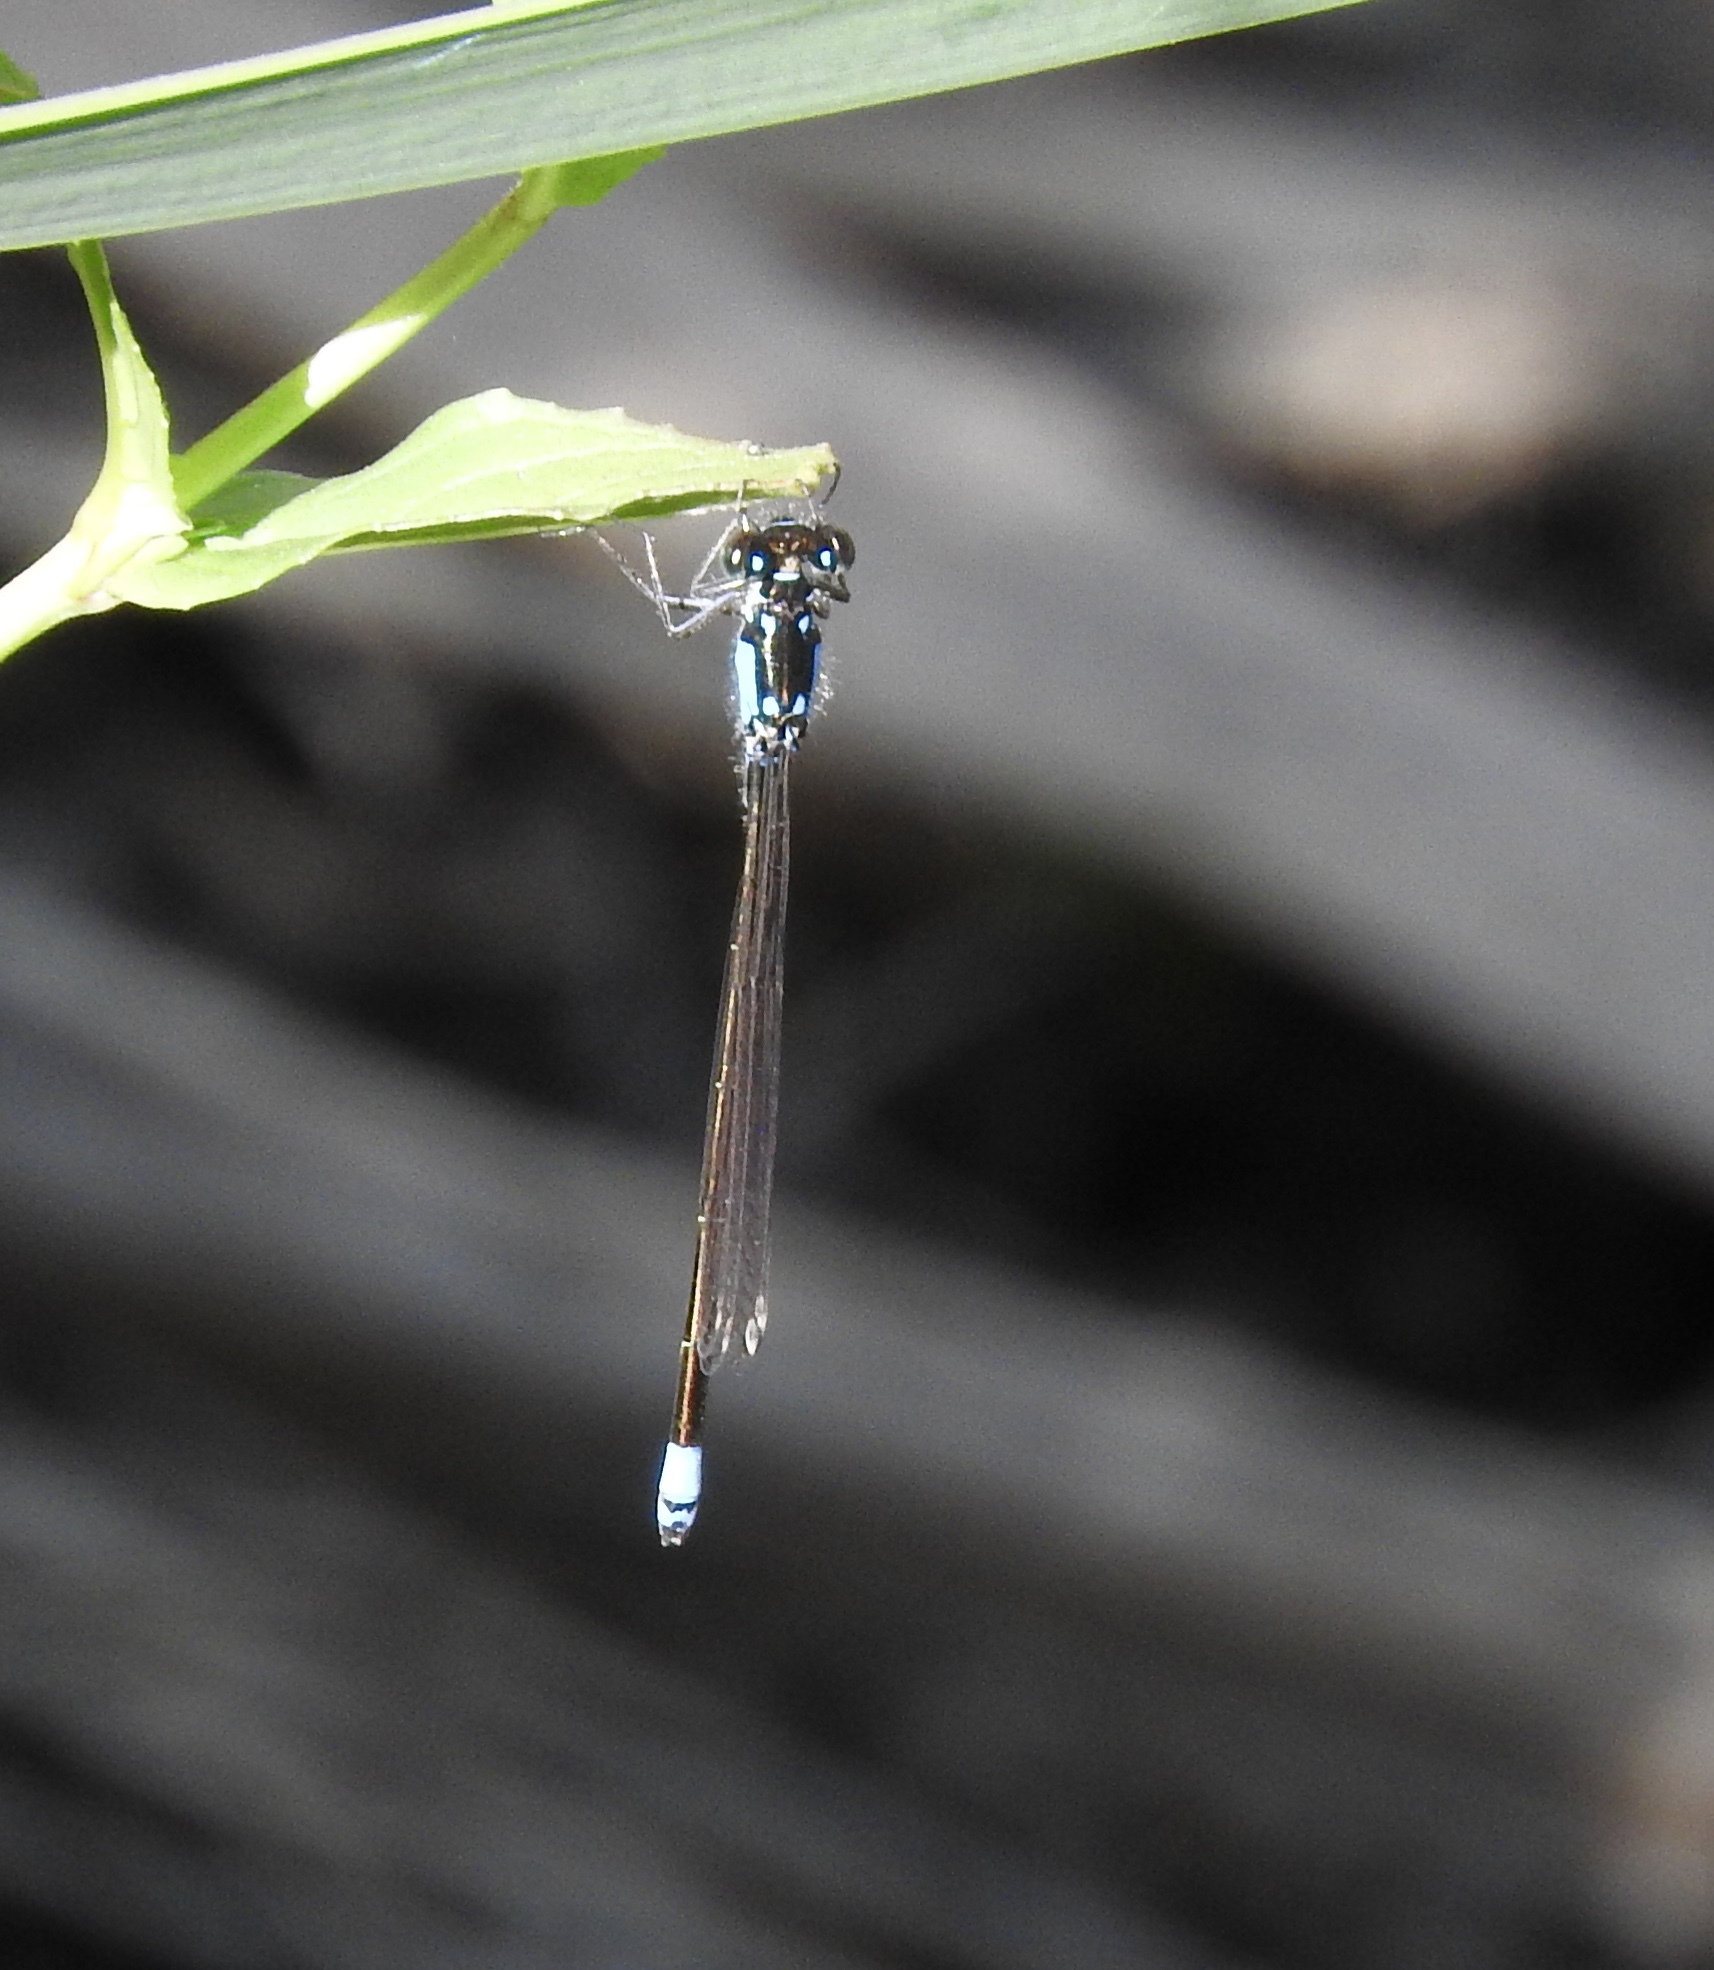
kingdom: Animalia
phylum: Arthropoda
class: Insecta
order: Odonata
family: Coenagrionidae
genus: Ischnura
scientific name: Ischnura cervula
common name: Pacific forktail
